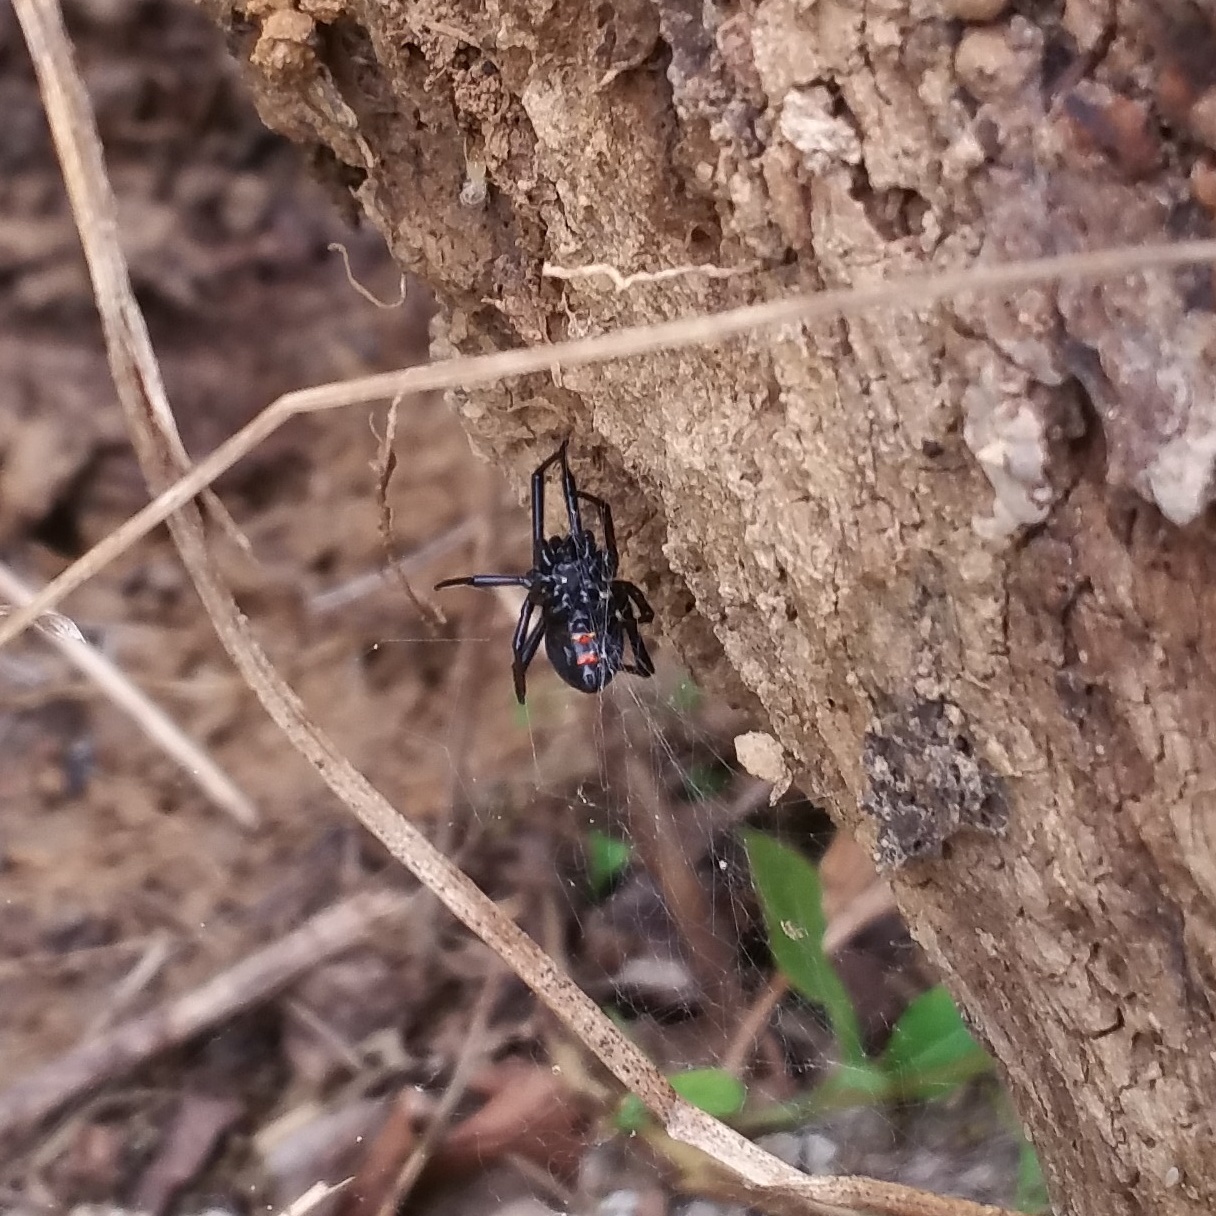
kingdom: Animalia
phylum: Arthropoda
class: Arachnida
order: Araneae
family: Theridiidae
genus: Latrodectus
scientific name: Latrodectus variolus
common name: Northern black widow
